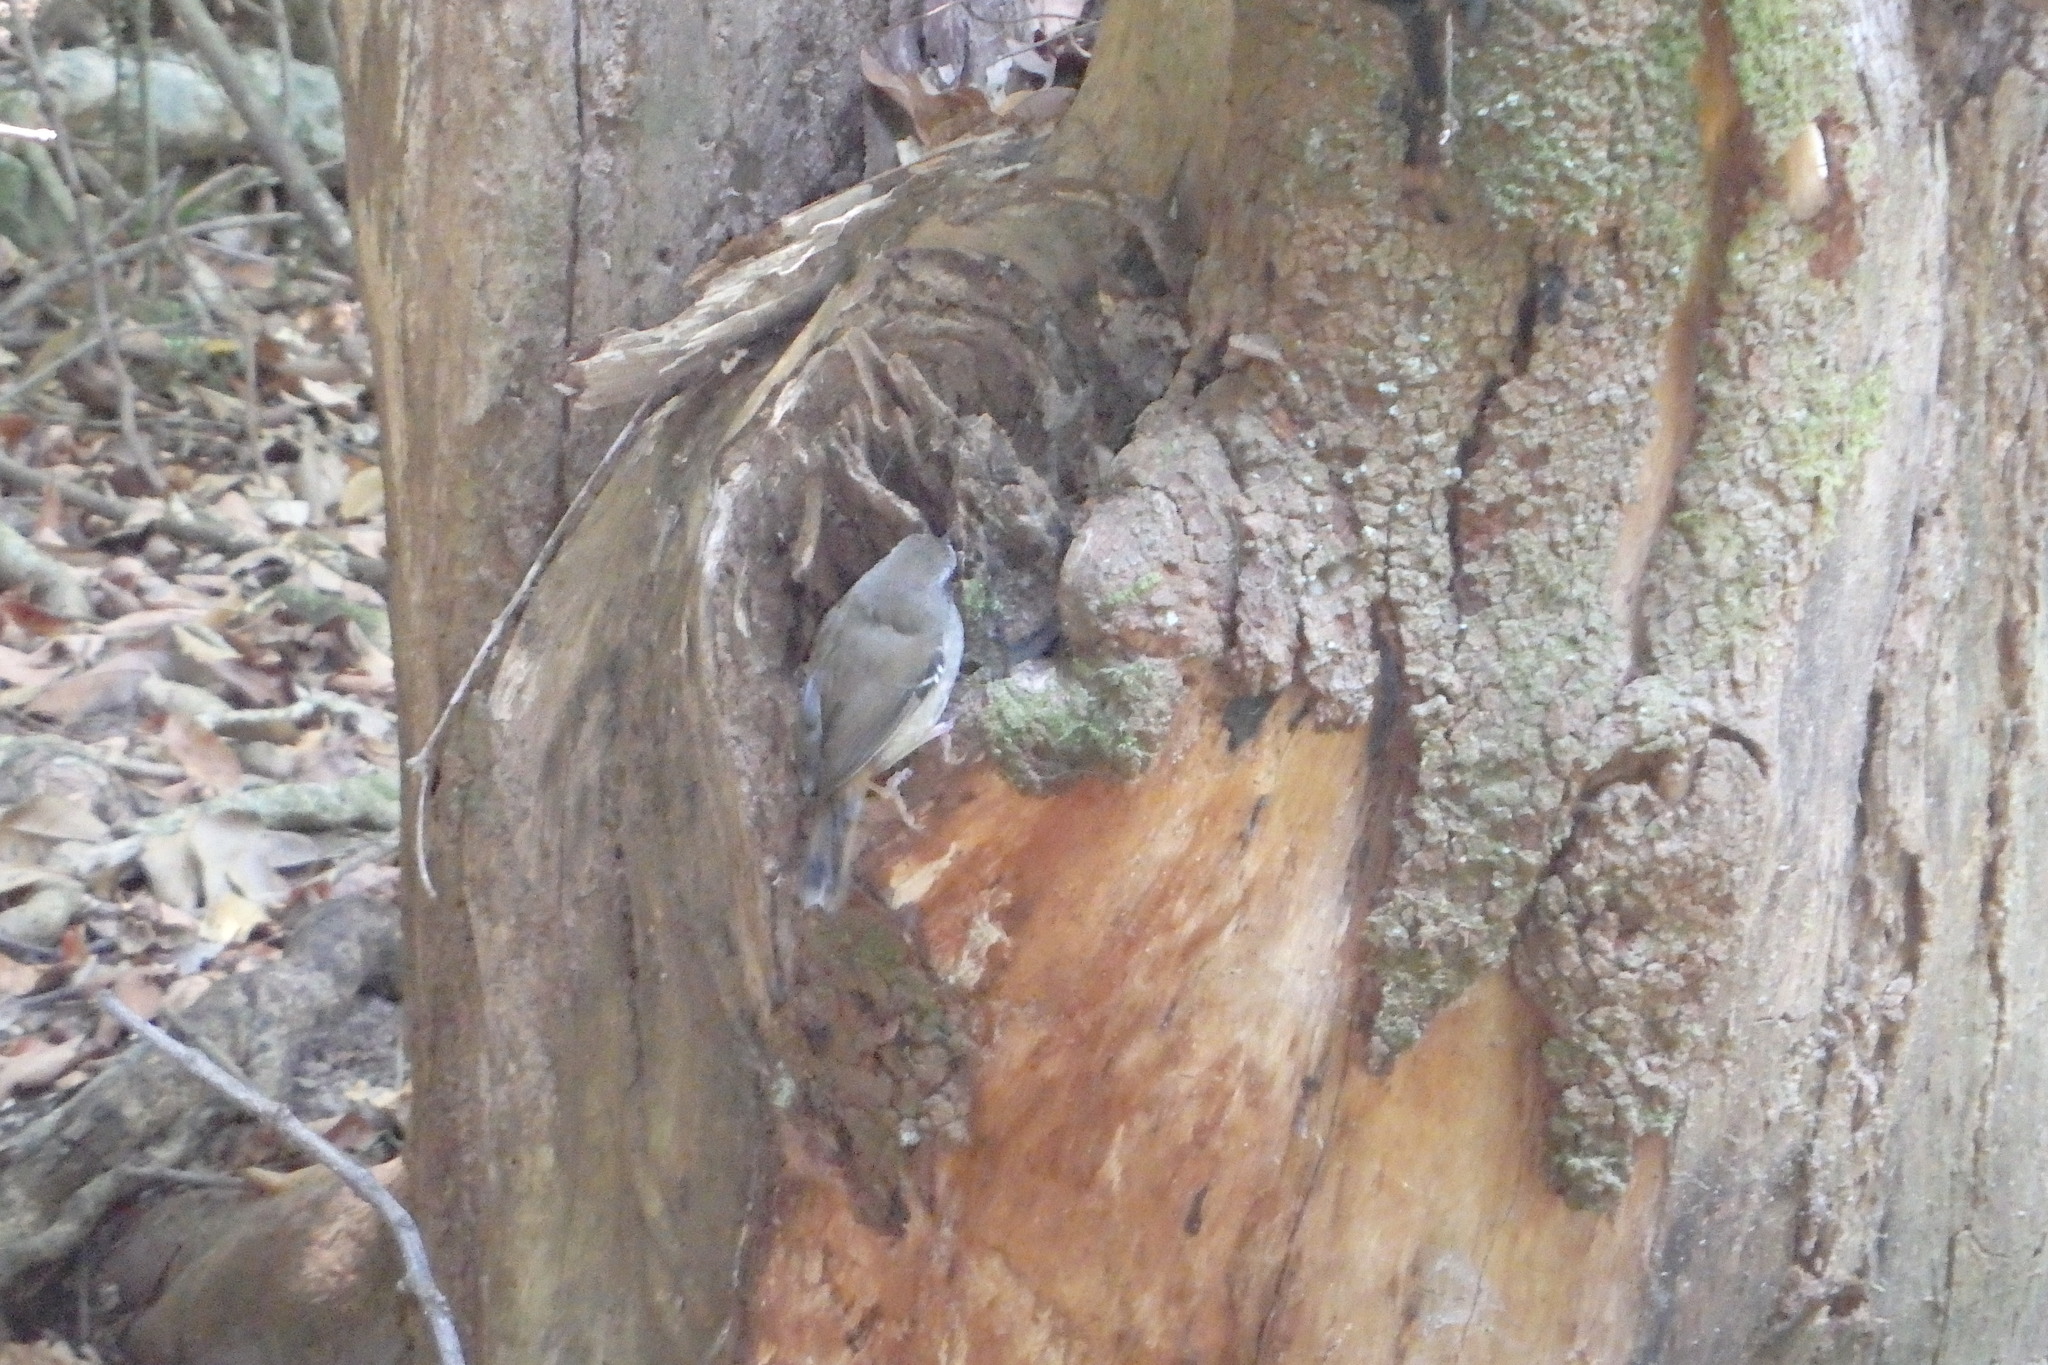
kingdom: Animalia
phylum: Chordata
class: Aves
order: Passeriformes
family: Acanthizidae
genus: Sericornis
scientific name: Sericornis frontalis
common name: White-browed scrubwren
